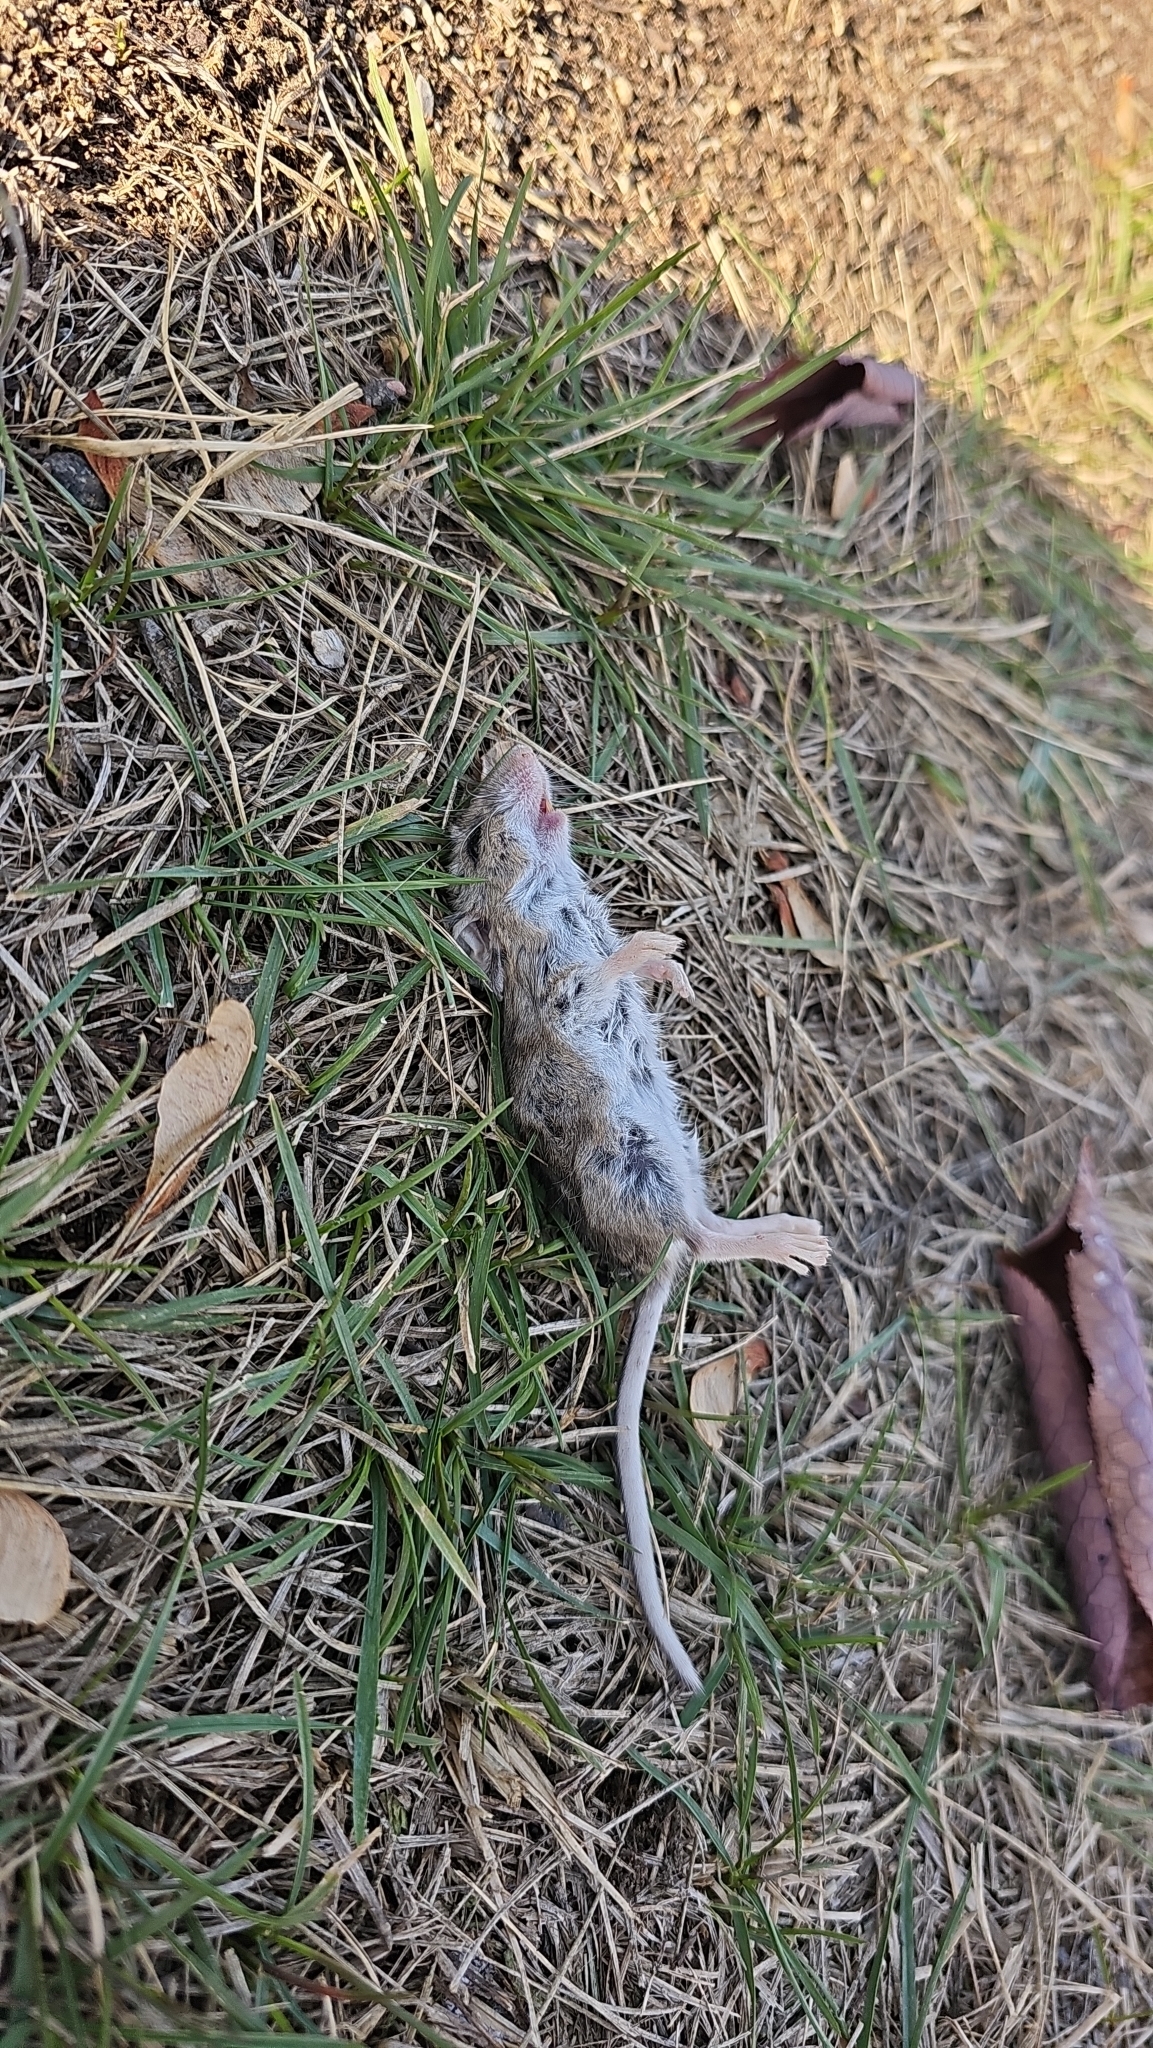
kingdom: Animalia
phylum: Chordata
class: Mammalia
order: Rodentia
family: Cricetidae
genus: Peromyscus
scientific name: Peromyscus maniculatus
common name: Deer mouse
